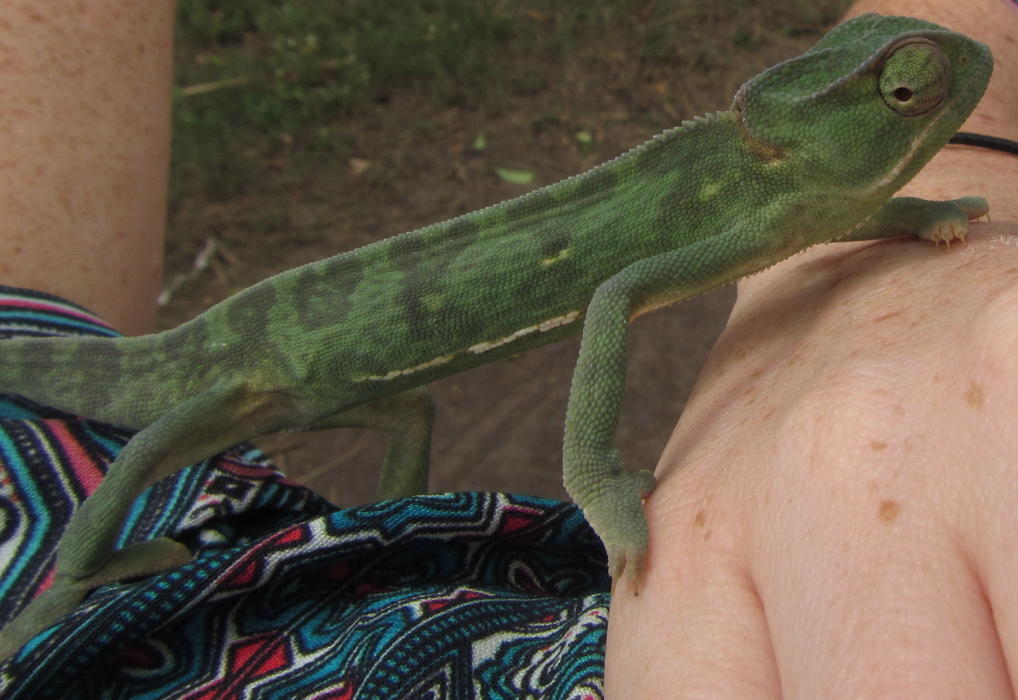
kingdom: Animalia
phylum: Chordata
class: Squamata
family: Chamaeleonidae
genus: Chamaeleo
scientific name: Chamaeleo dilepis
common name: Flapneck chameleon
